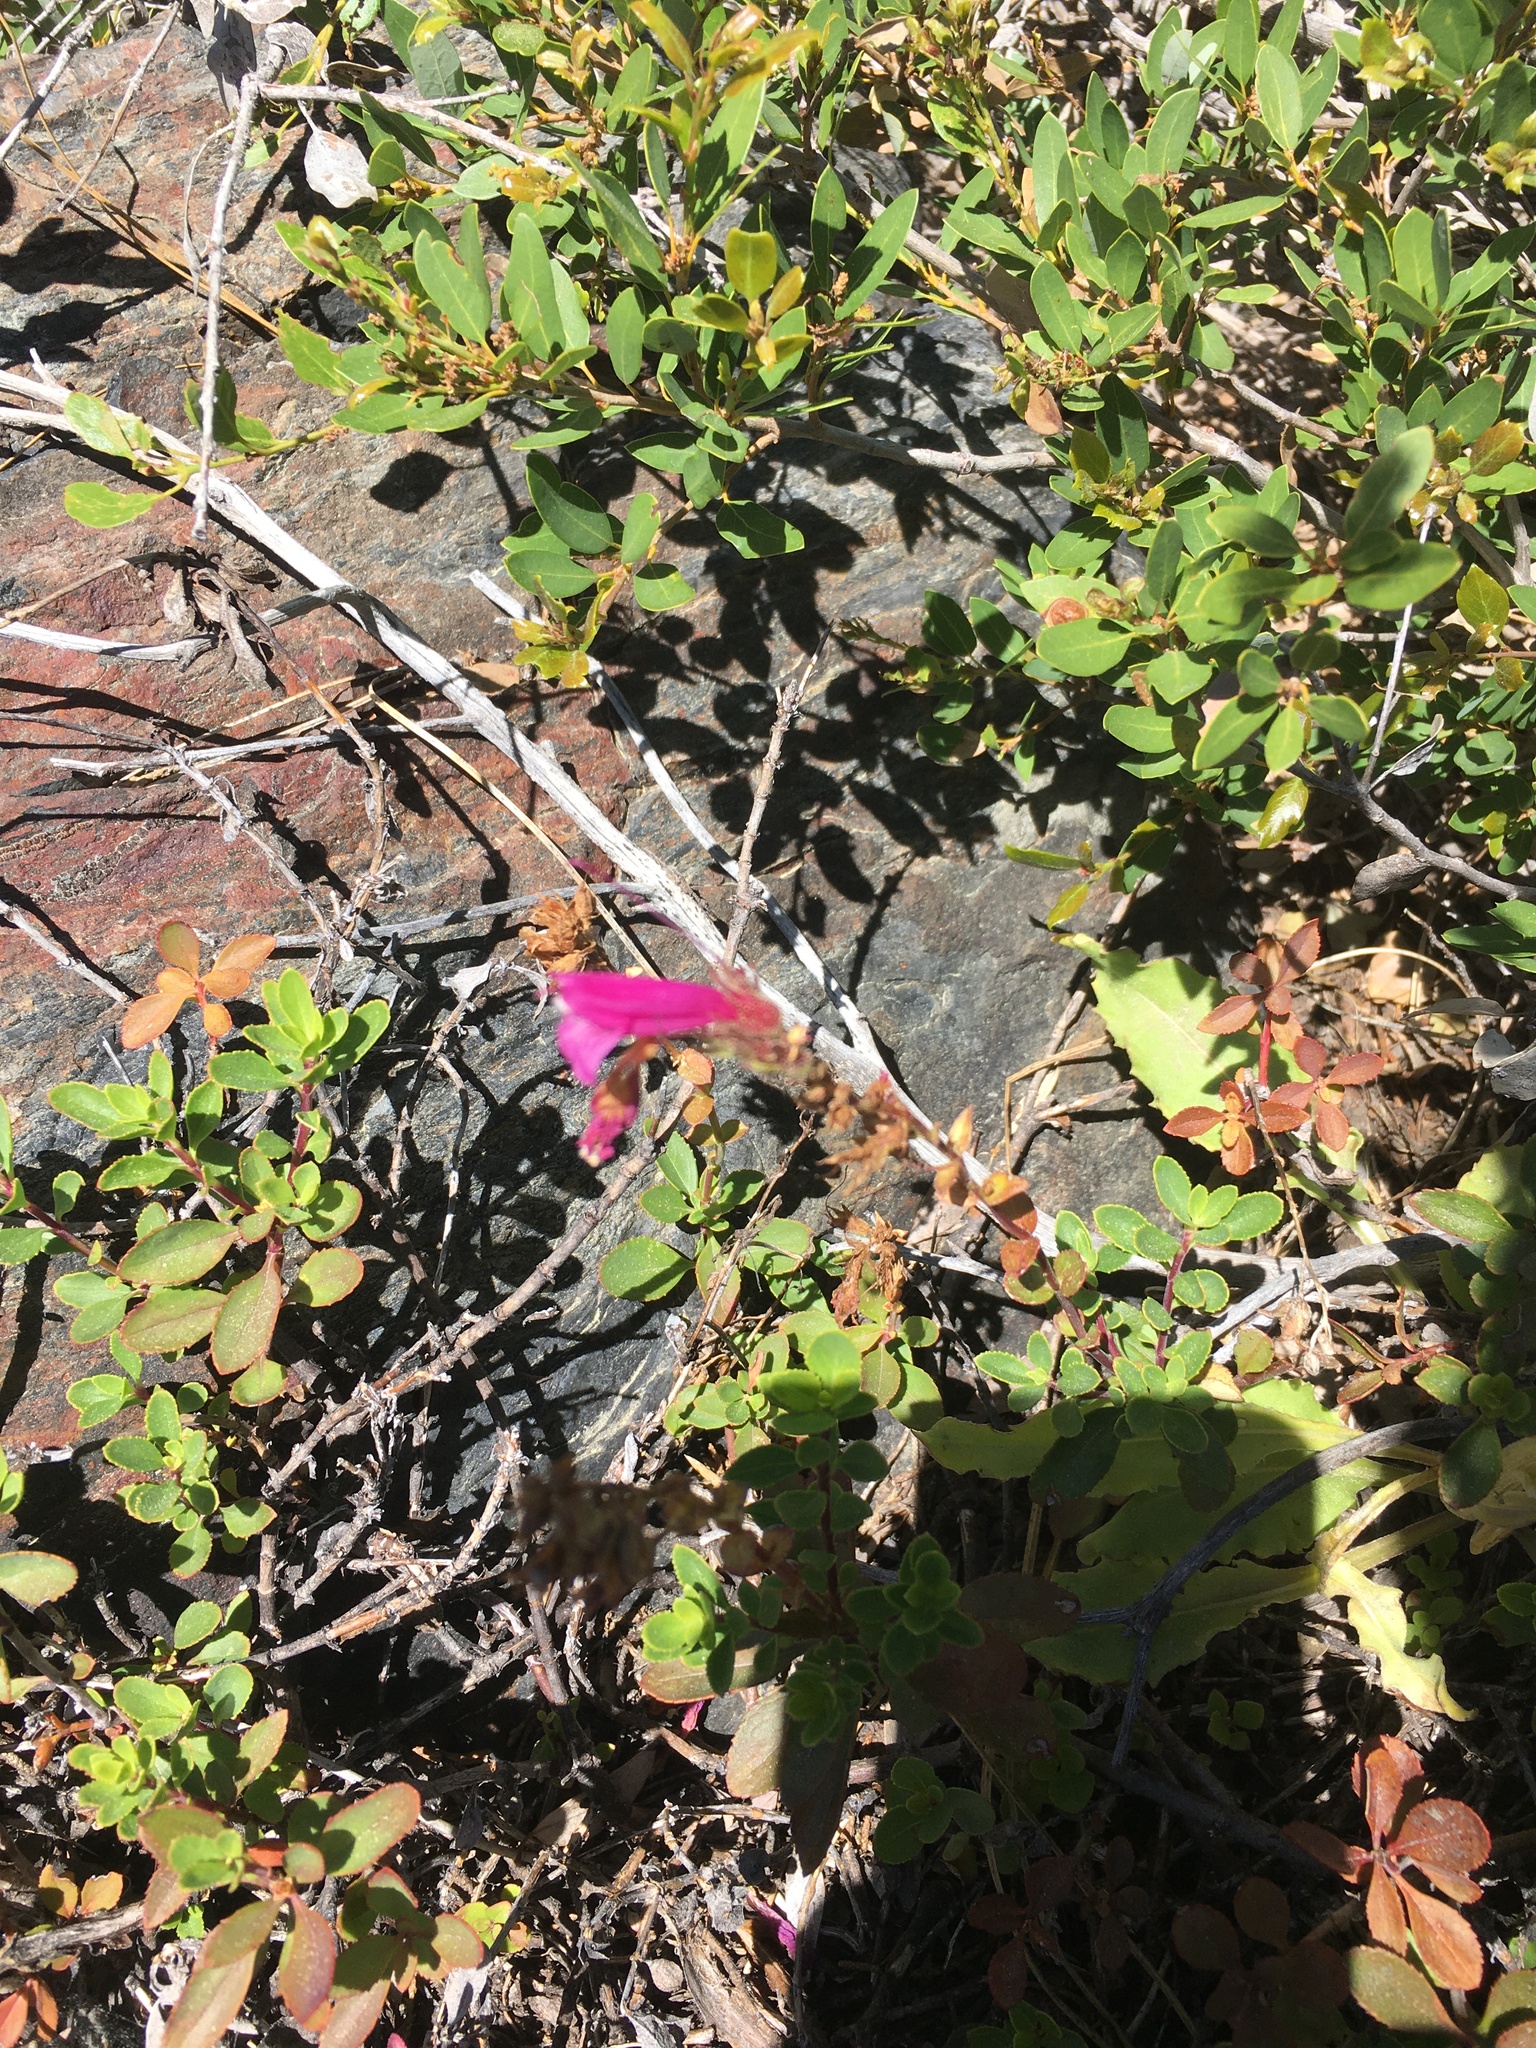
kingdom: Plantae
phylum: Tracheophyta
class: Magnoliopsida
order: Lamiales
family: Plantaginaceae
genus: Penstemon
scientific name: Penstemon newberryi
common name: Mountain-pride
